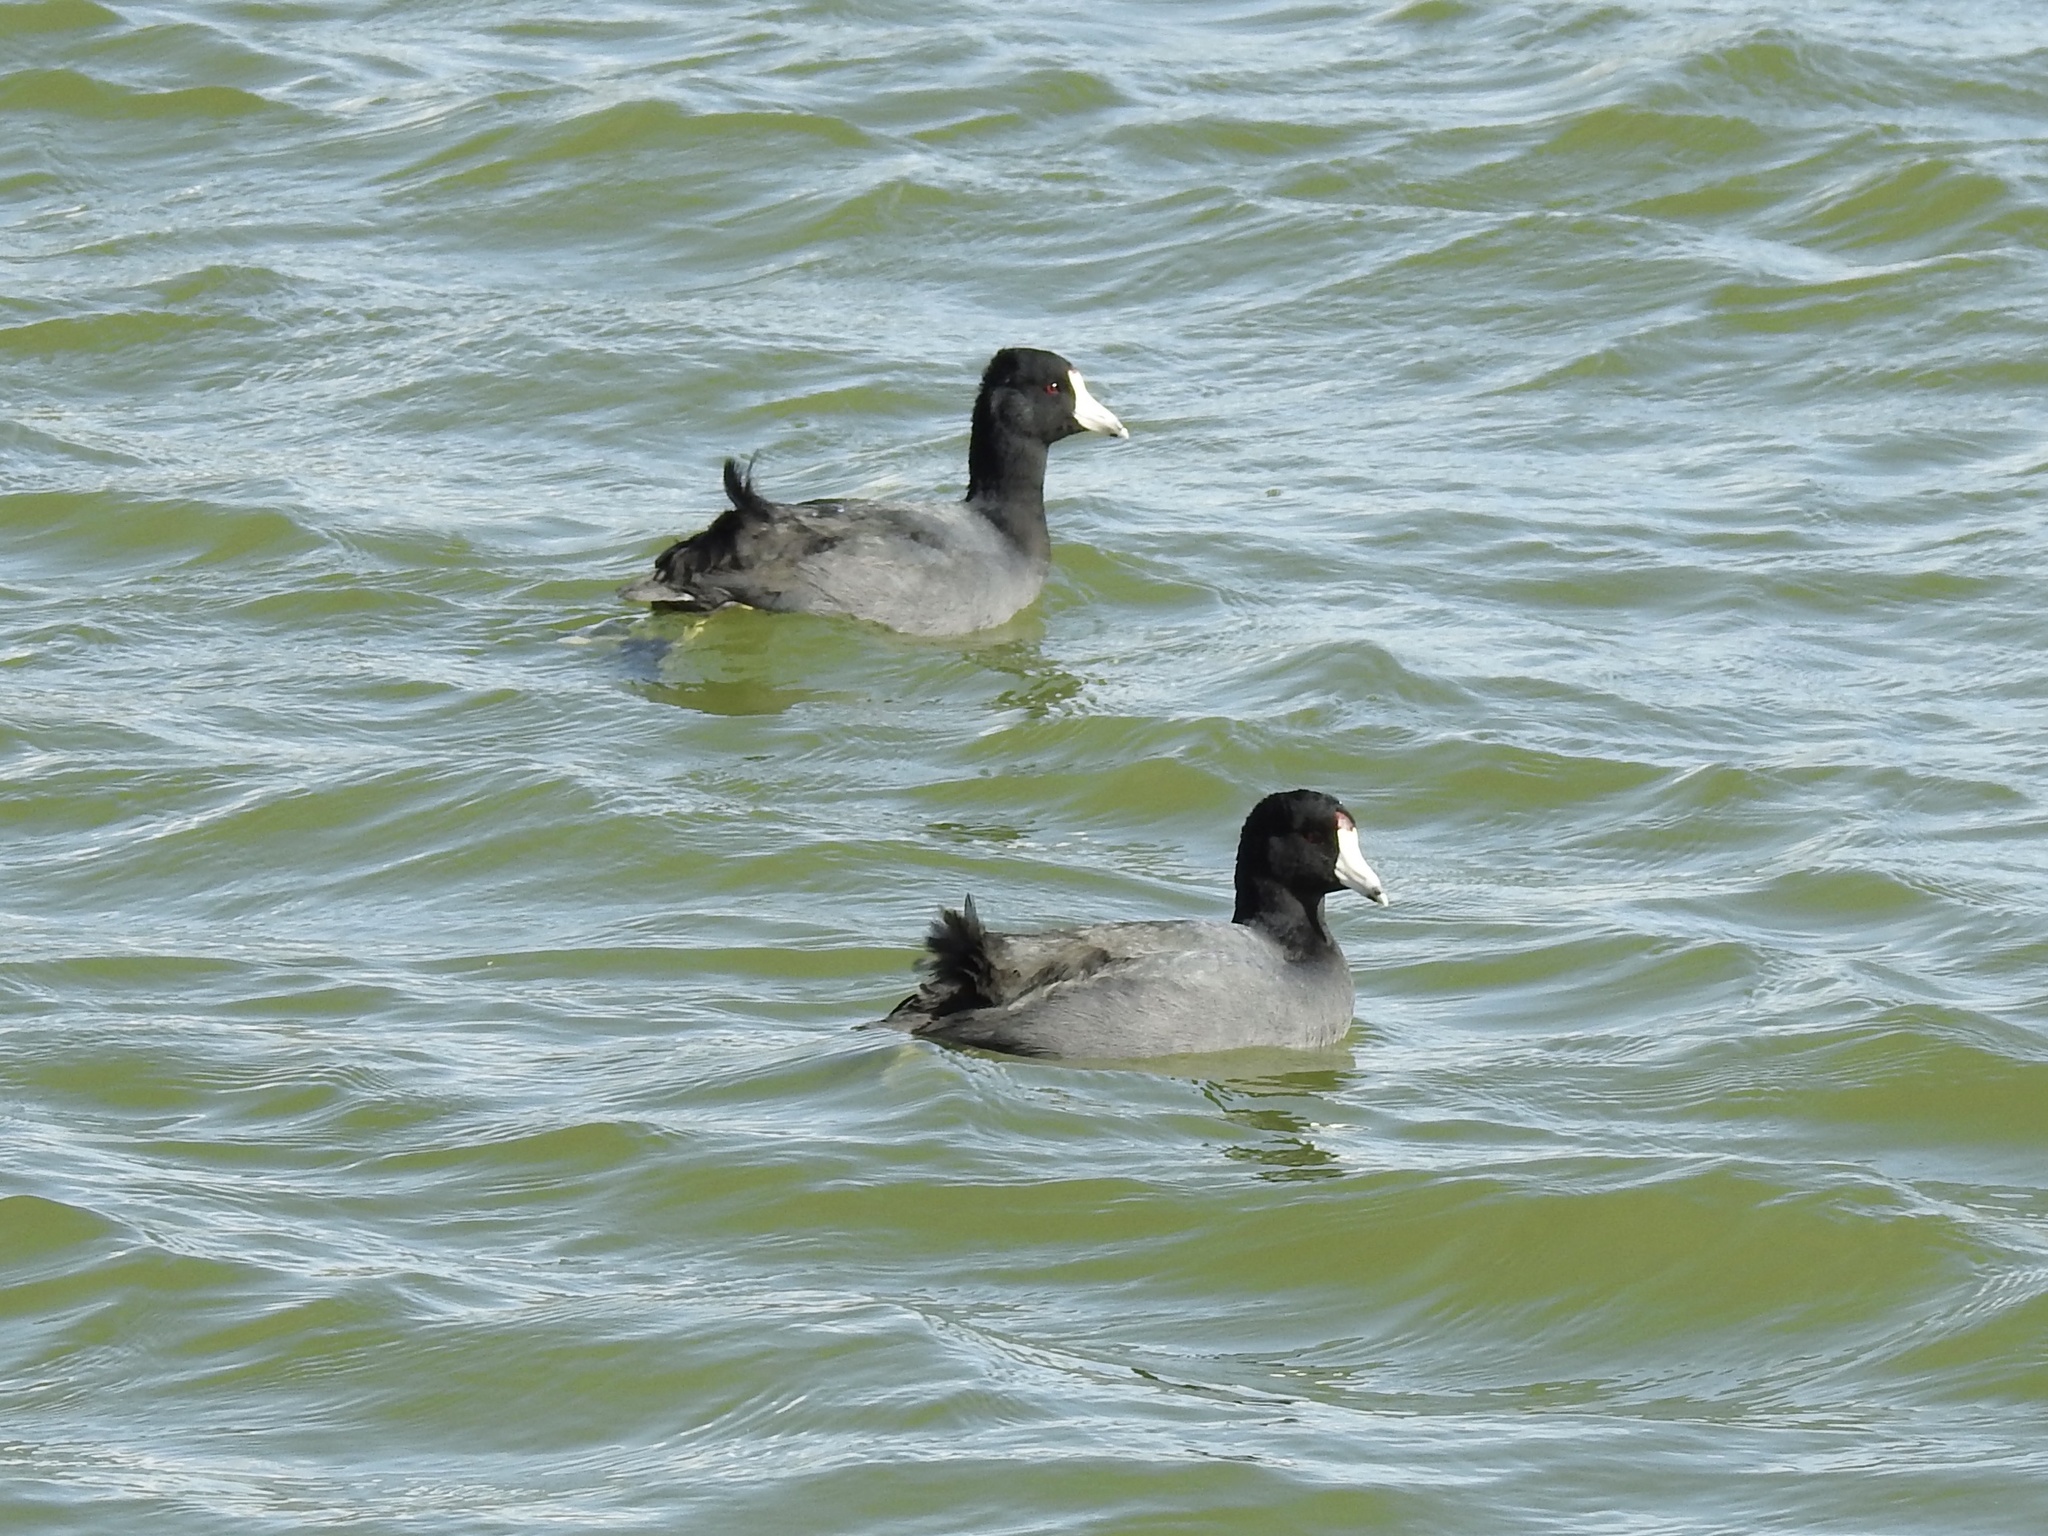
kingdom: Animalia
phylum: Chordata
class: Aves
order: Gruiformes
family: Rallidae
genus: Fulica
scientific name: Fulica americana
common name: American coot
